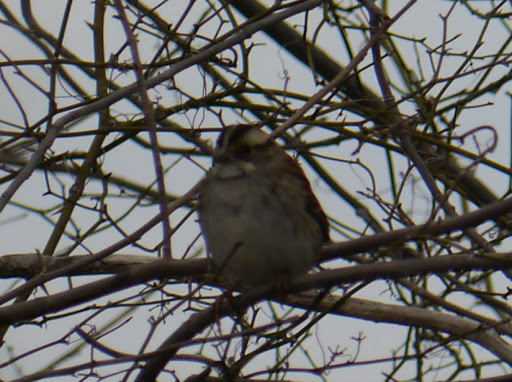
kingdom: Animalia
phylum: Chordata
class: Aves
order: Passeriformes
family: Passerellidae
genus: Zonotrichia
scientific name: Zonotrichia albicollis
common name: White-throated sparrow
